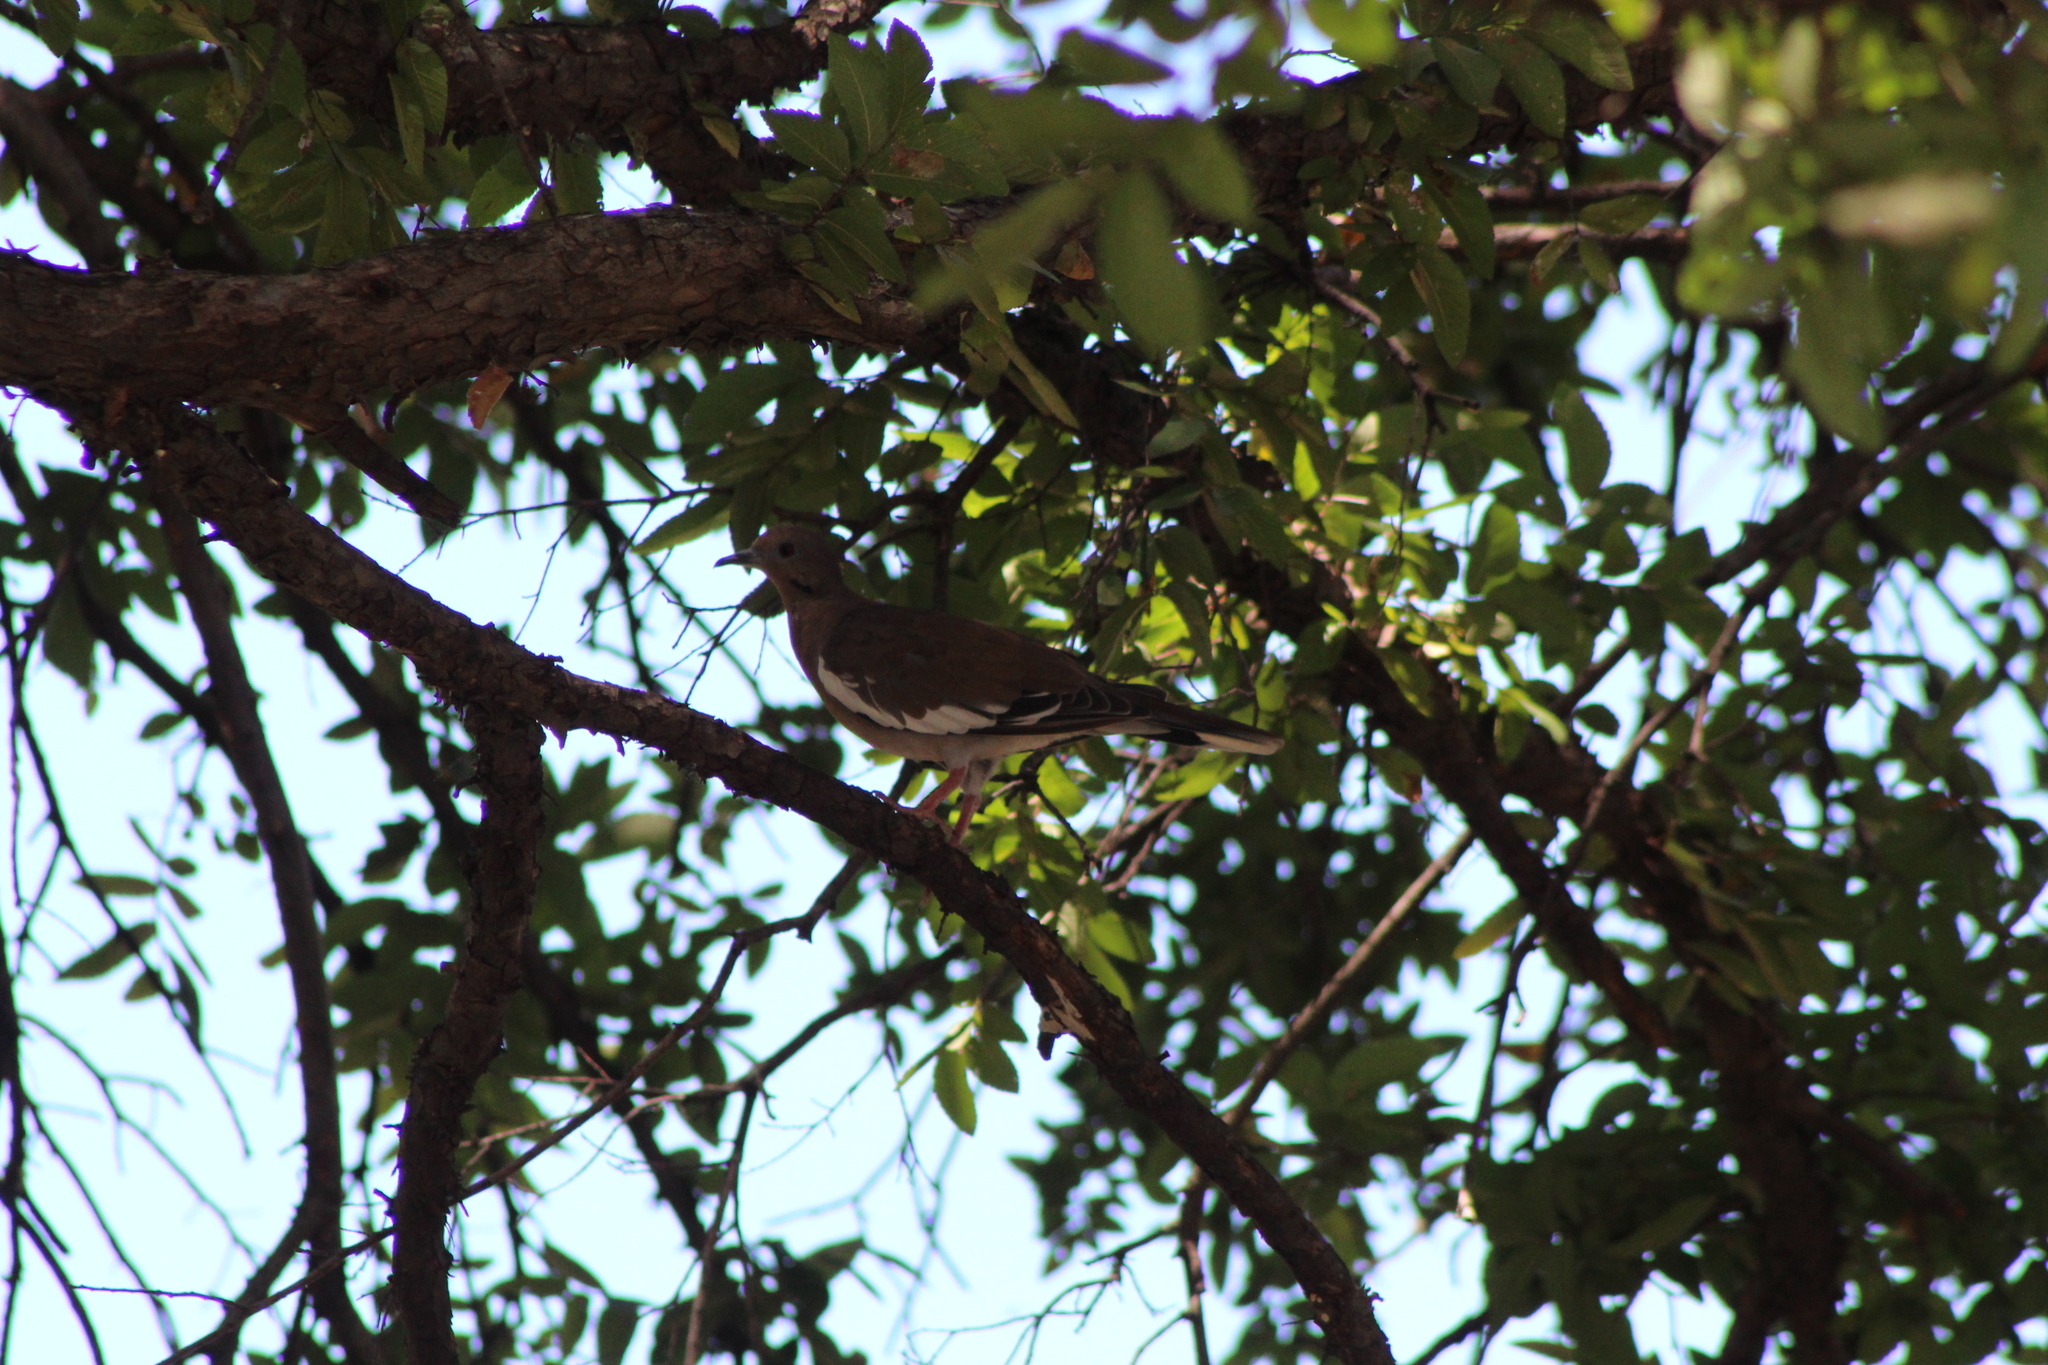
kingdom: Animalia
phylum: Chordata
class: Aves
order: Columbiformes
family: Columbidae
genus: Zenaida
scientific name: Zenaida asiatica
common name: White-winged dove
